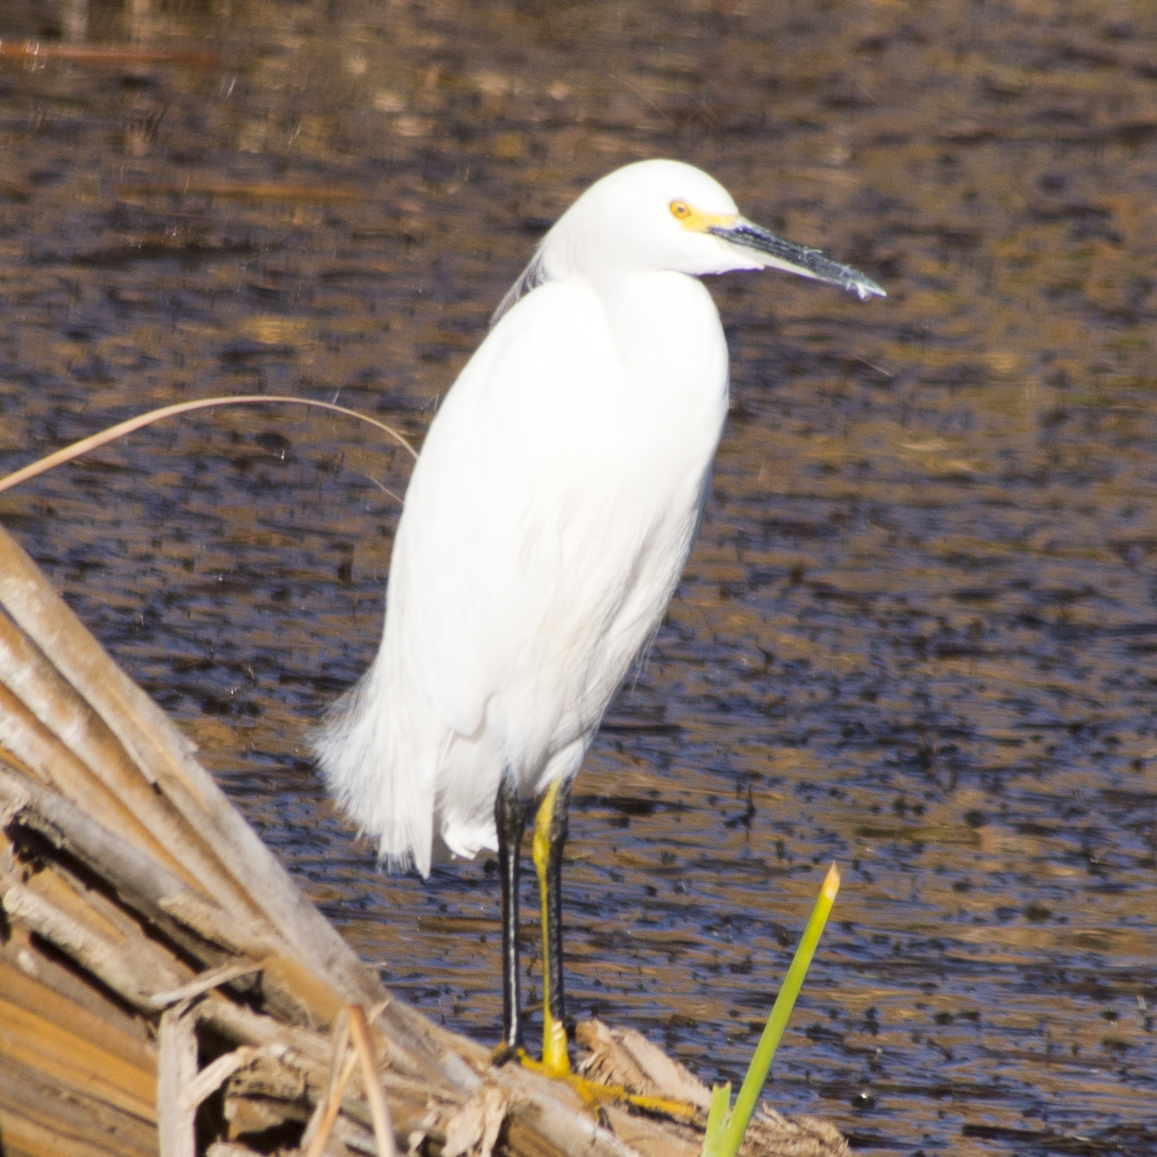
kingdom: Animalia
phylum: Chordata
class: Aves
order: Pelecaniformes
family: Ardeidae
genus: Egretta
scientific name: Egretta thula
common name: Snowy egret
